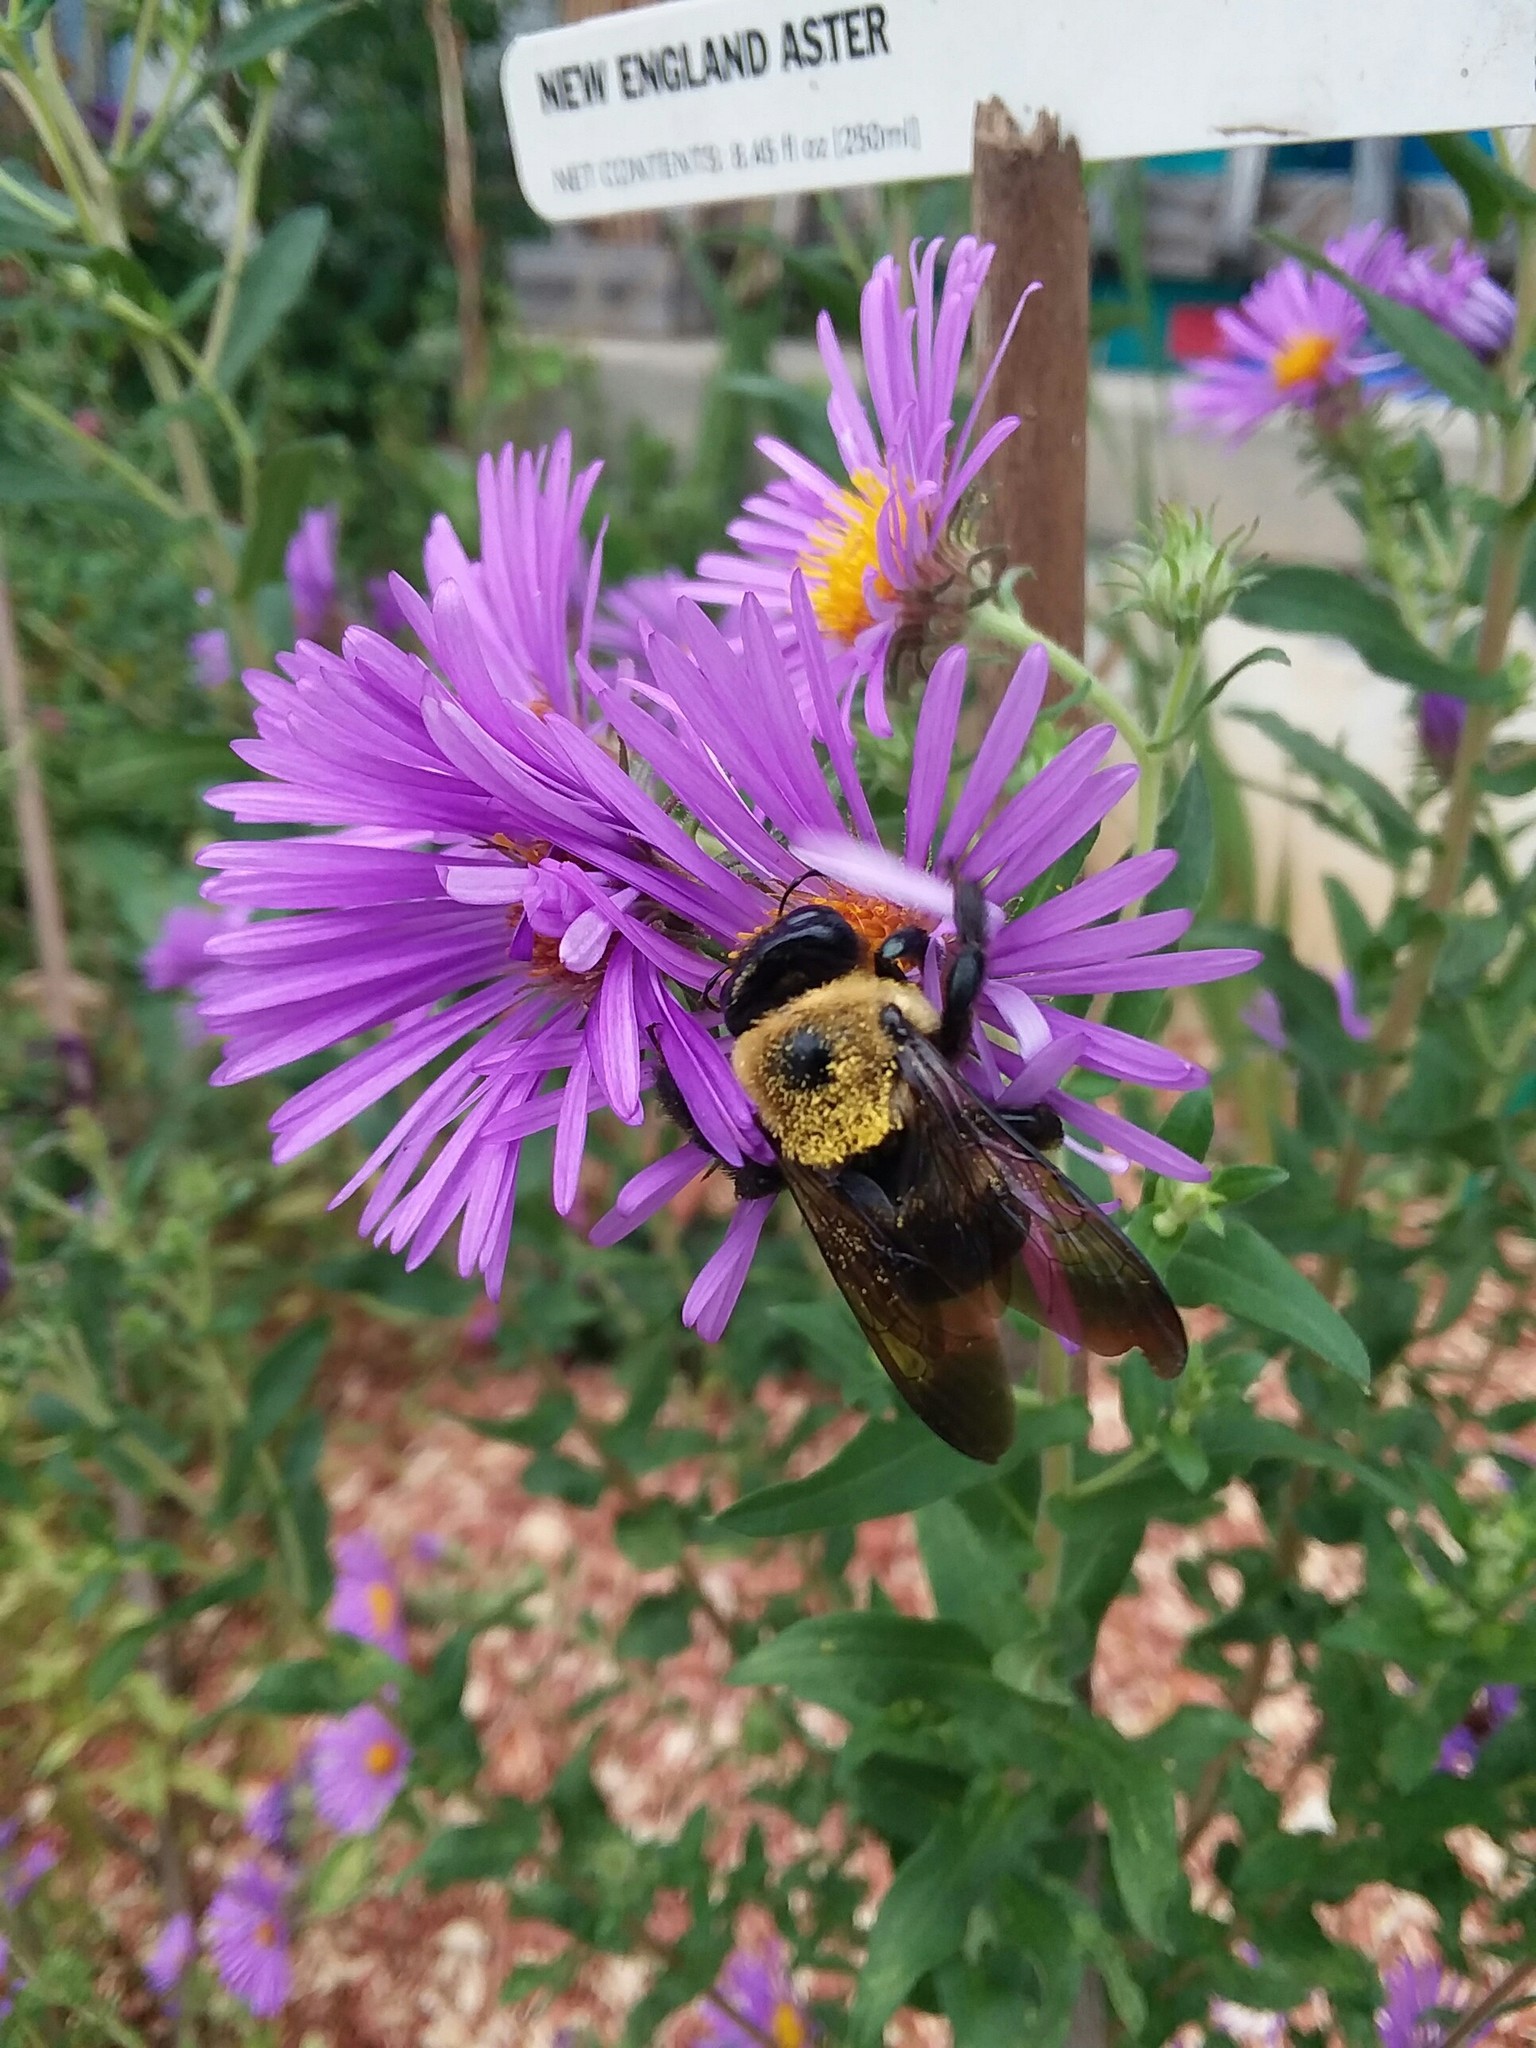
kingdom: Animalia
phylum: Arthropoda
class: Insecta
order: Hymenoptera
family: Apidae
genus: Xylocopa
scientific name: Xylocopa virginica
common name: Carpenter bee
